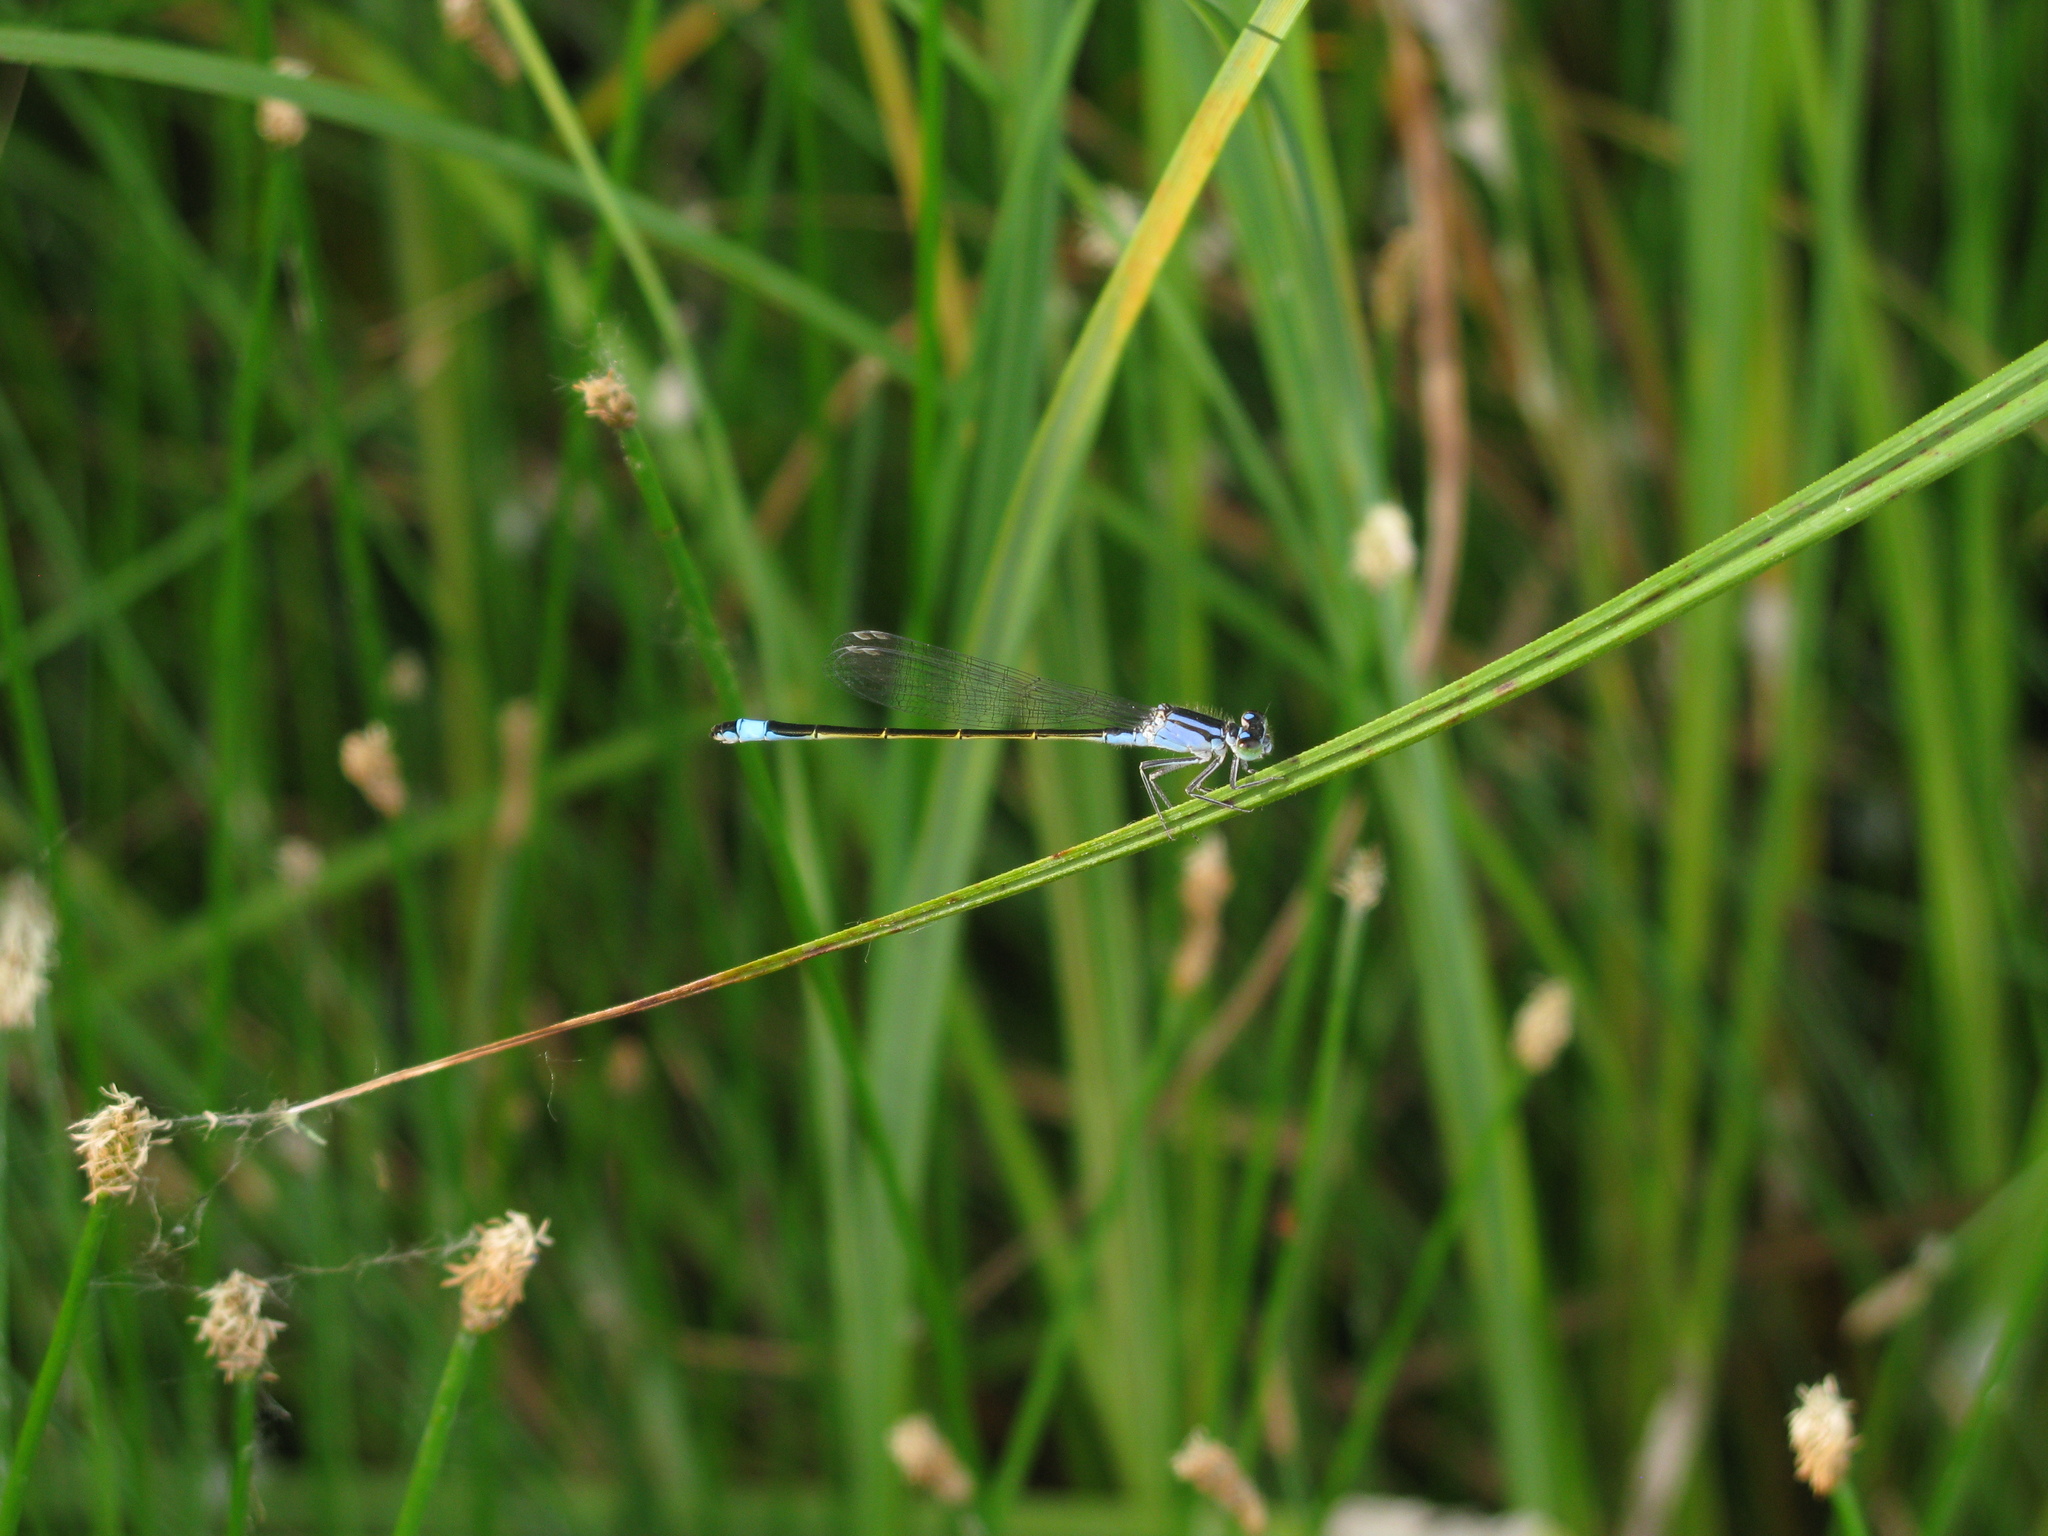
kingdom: Animalia
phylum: Arthropoda
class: Insecta
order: Odonata
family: Coenagrionidae
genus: Ischnura
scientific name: Ischnura elegans
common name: Blue-tailed damselfly
